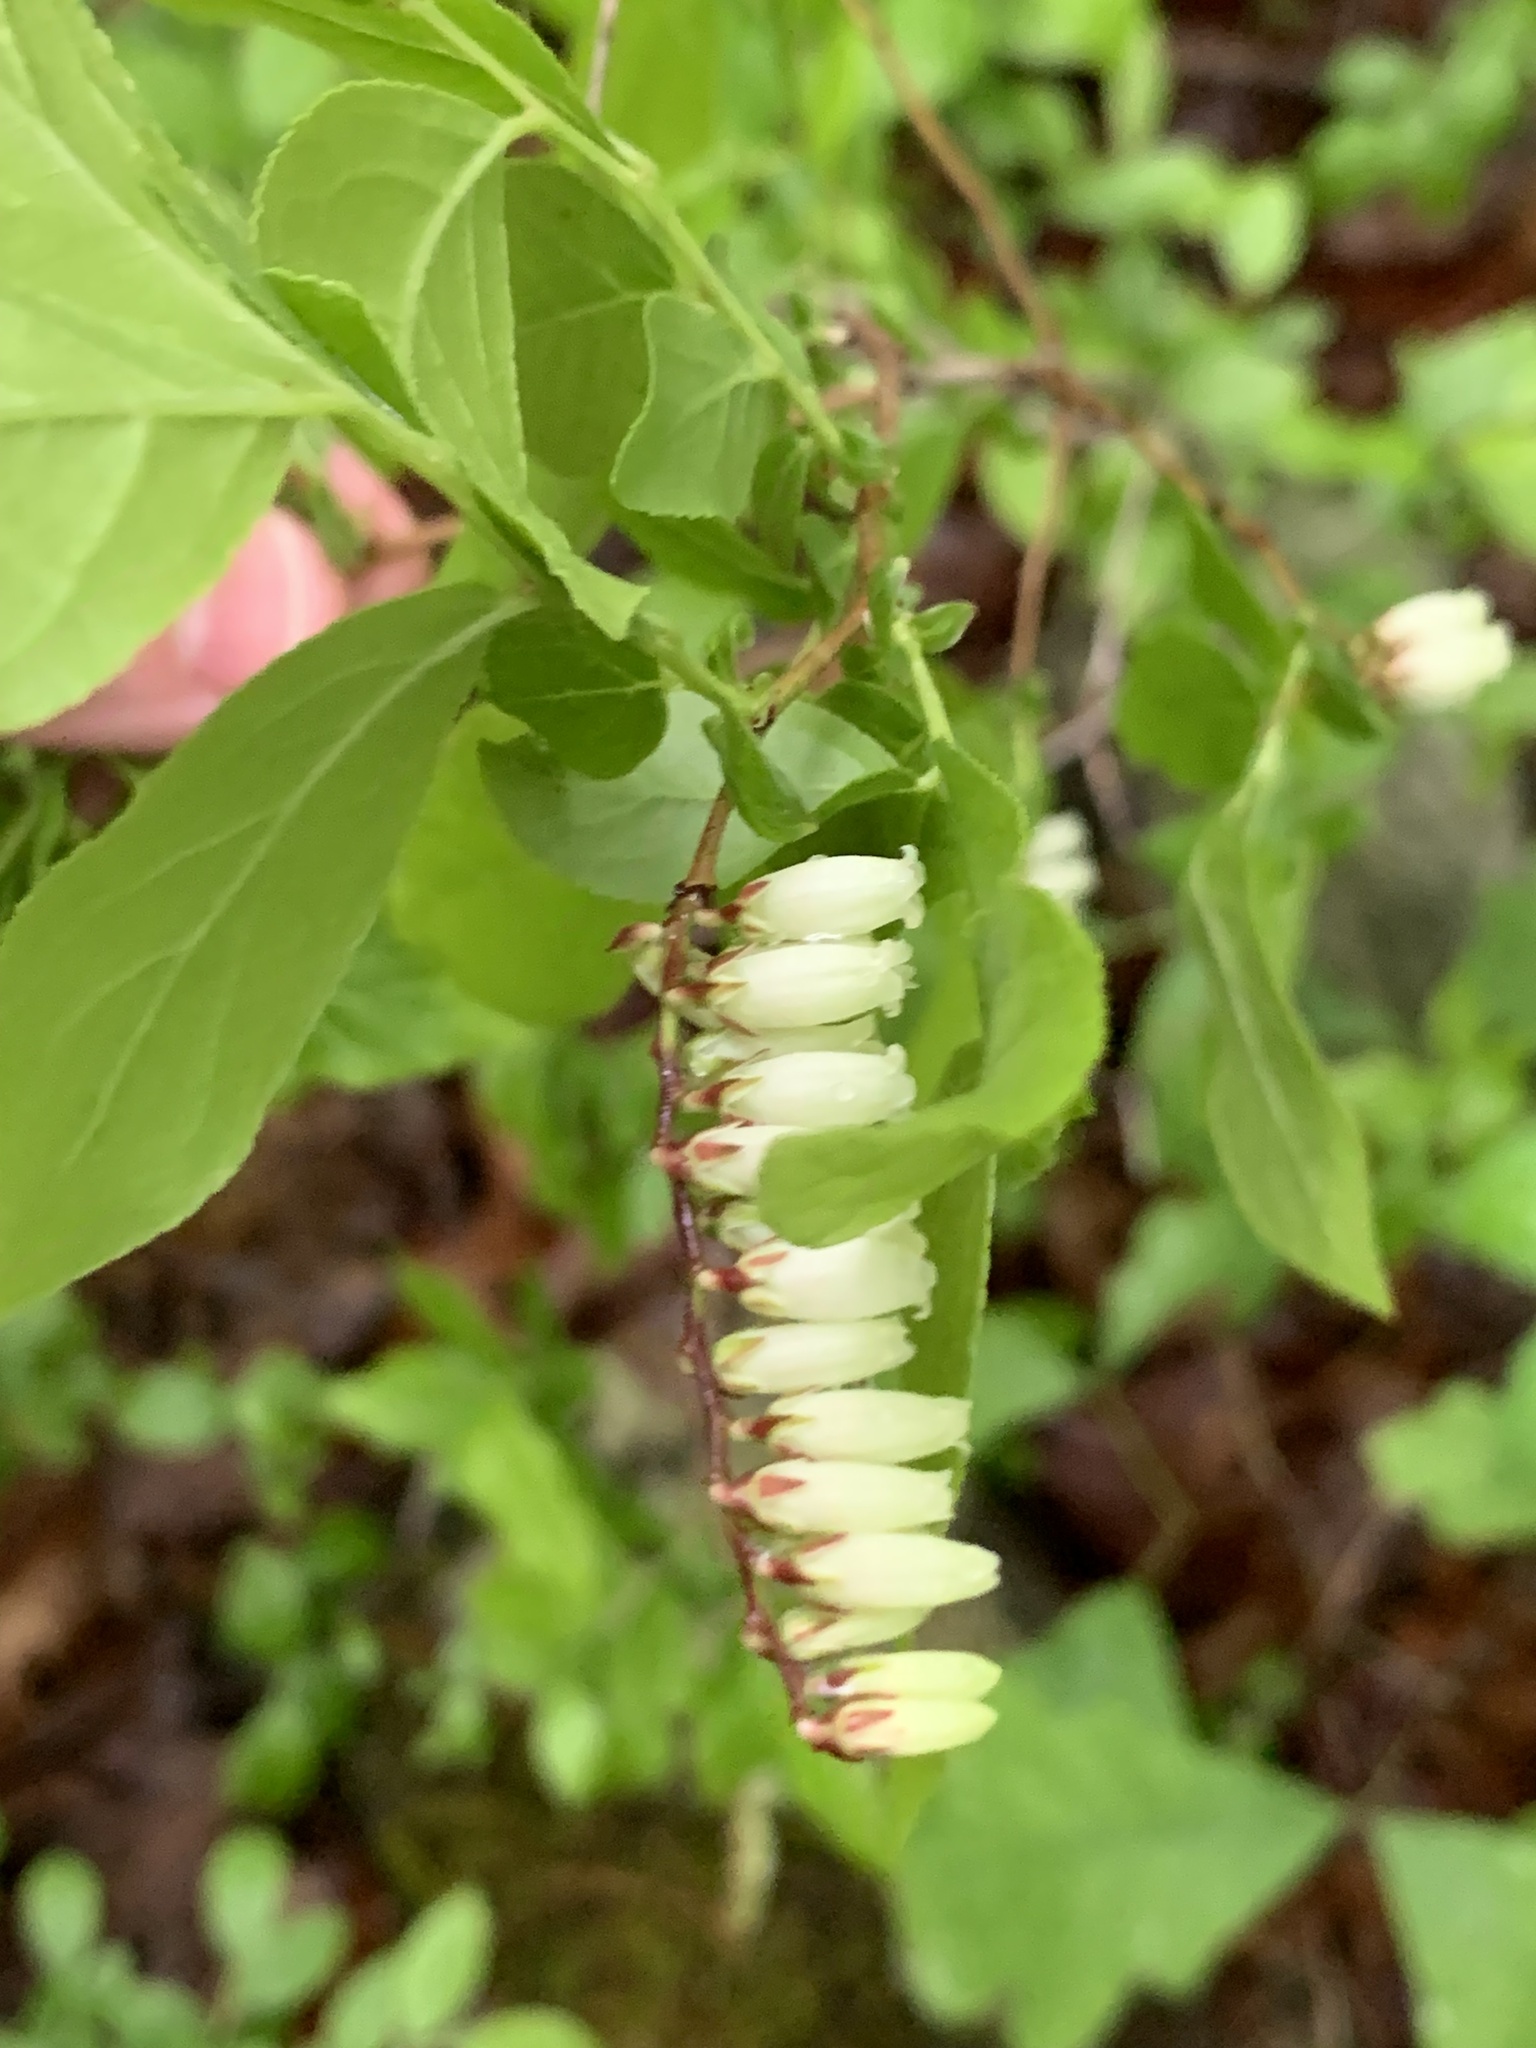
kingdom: Plantae
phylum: Tracheophyta
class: Magnoliopsida
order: Ericales
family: Ericaceae
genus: Eubotrys
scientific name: Eubotrys racemosa
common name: Fetterbush
